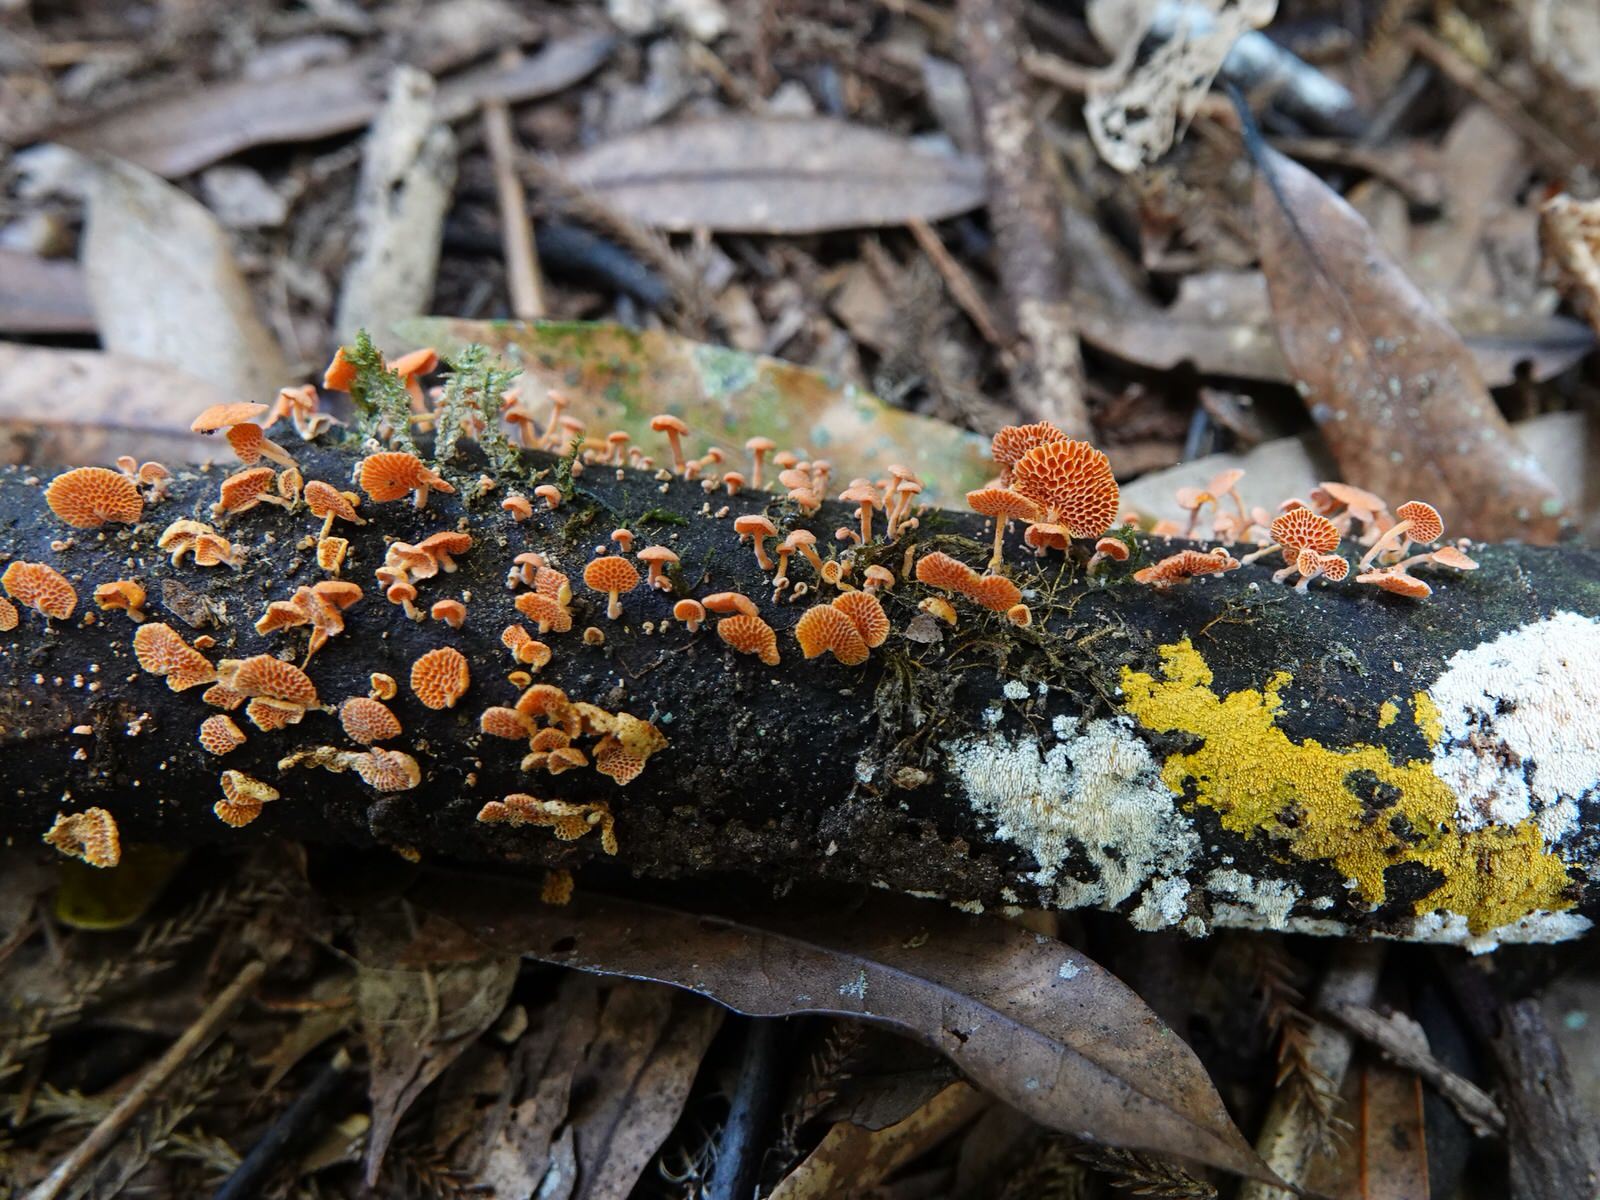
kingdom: Fungi
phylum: Basidiomycota
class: Agaricomycetes
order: Agaricales
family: Mycenaceae
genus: Favolaschia
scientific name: Favolaschia claudopus
